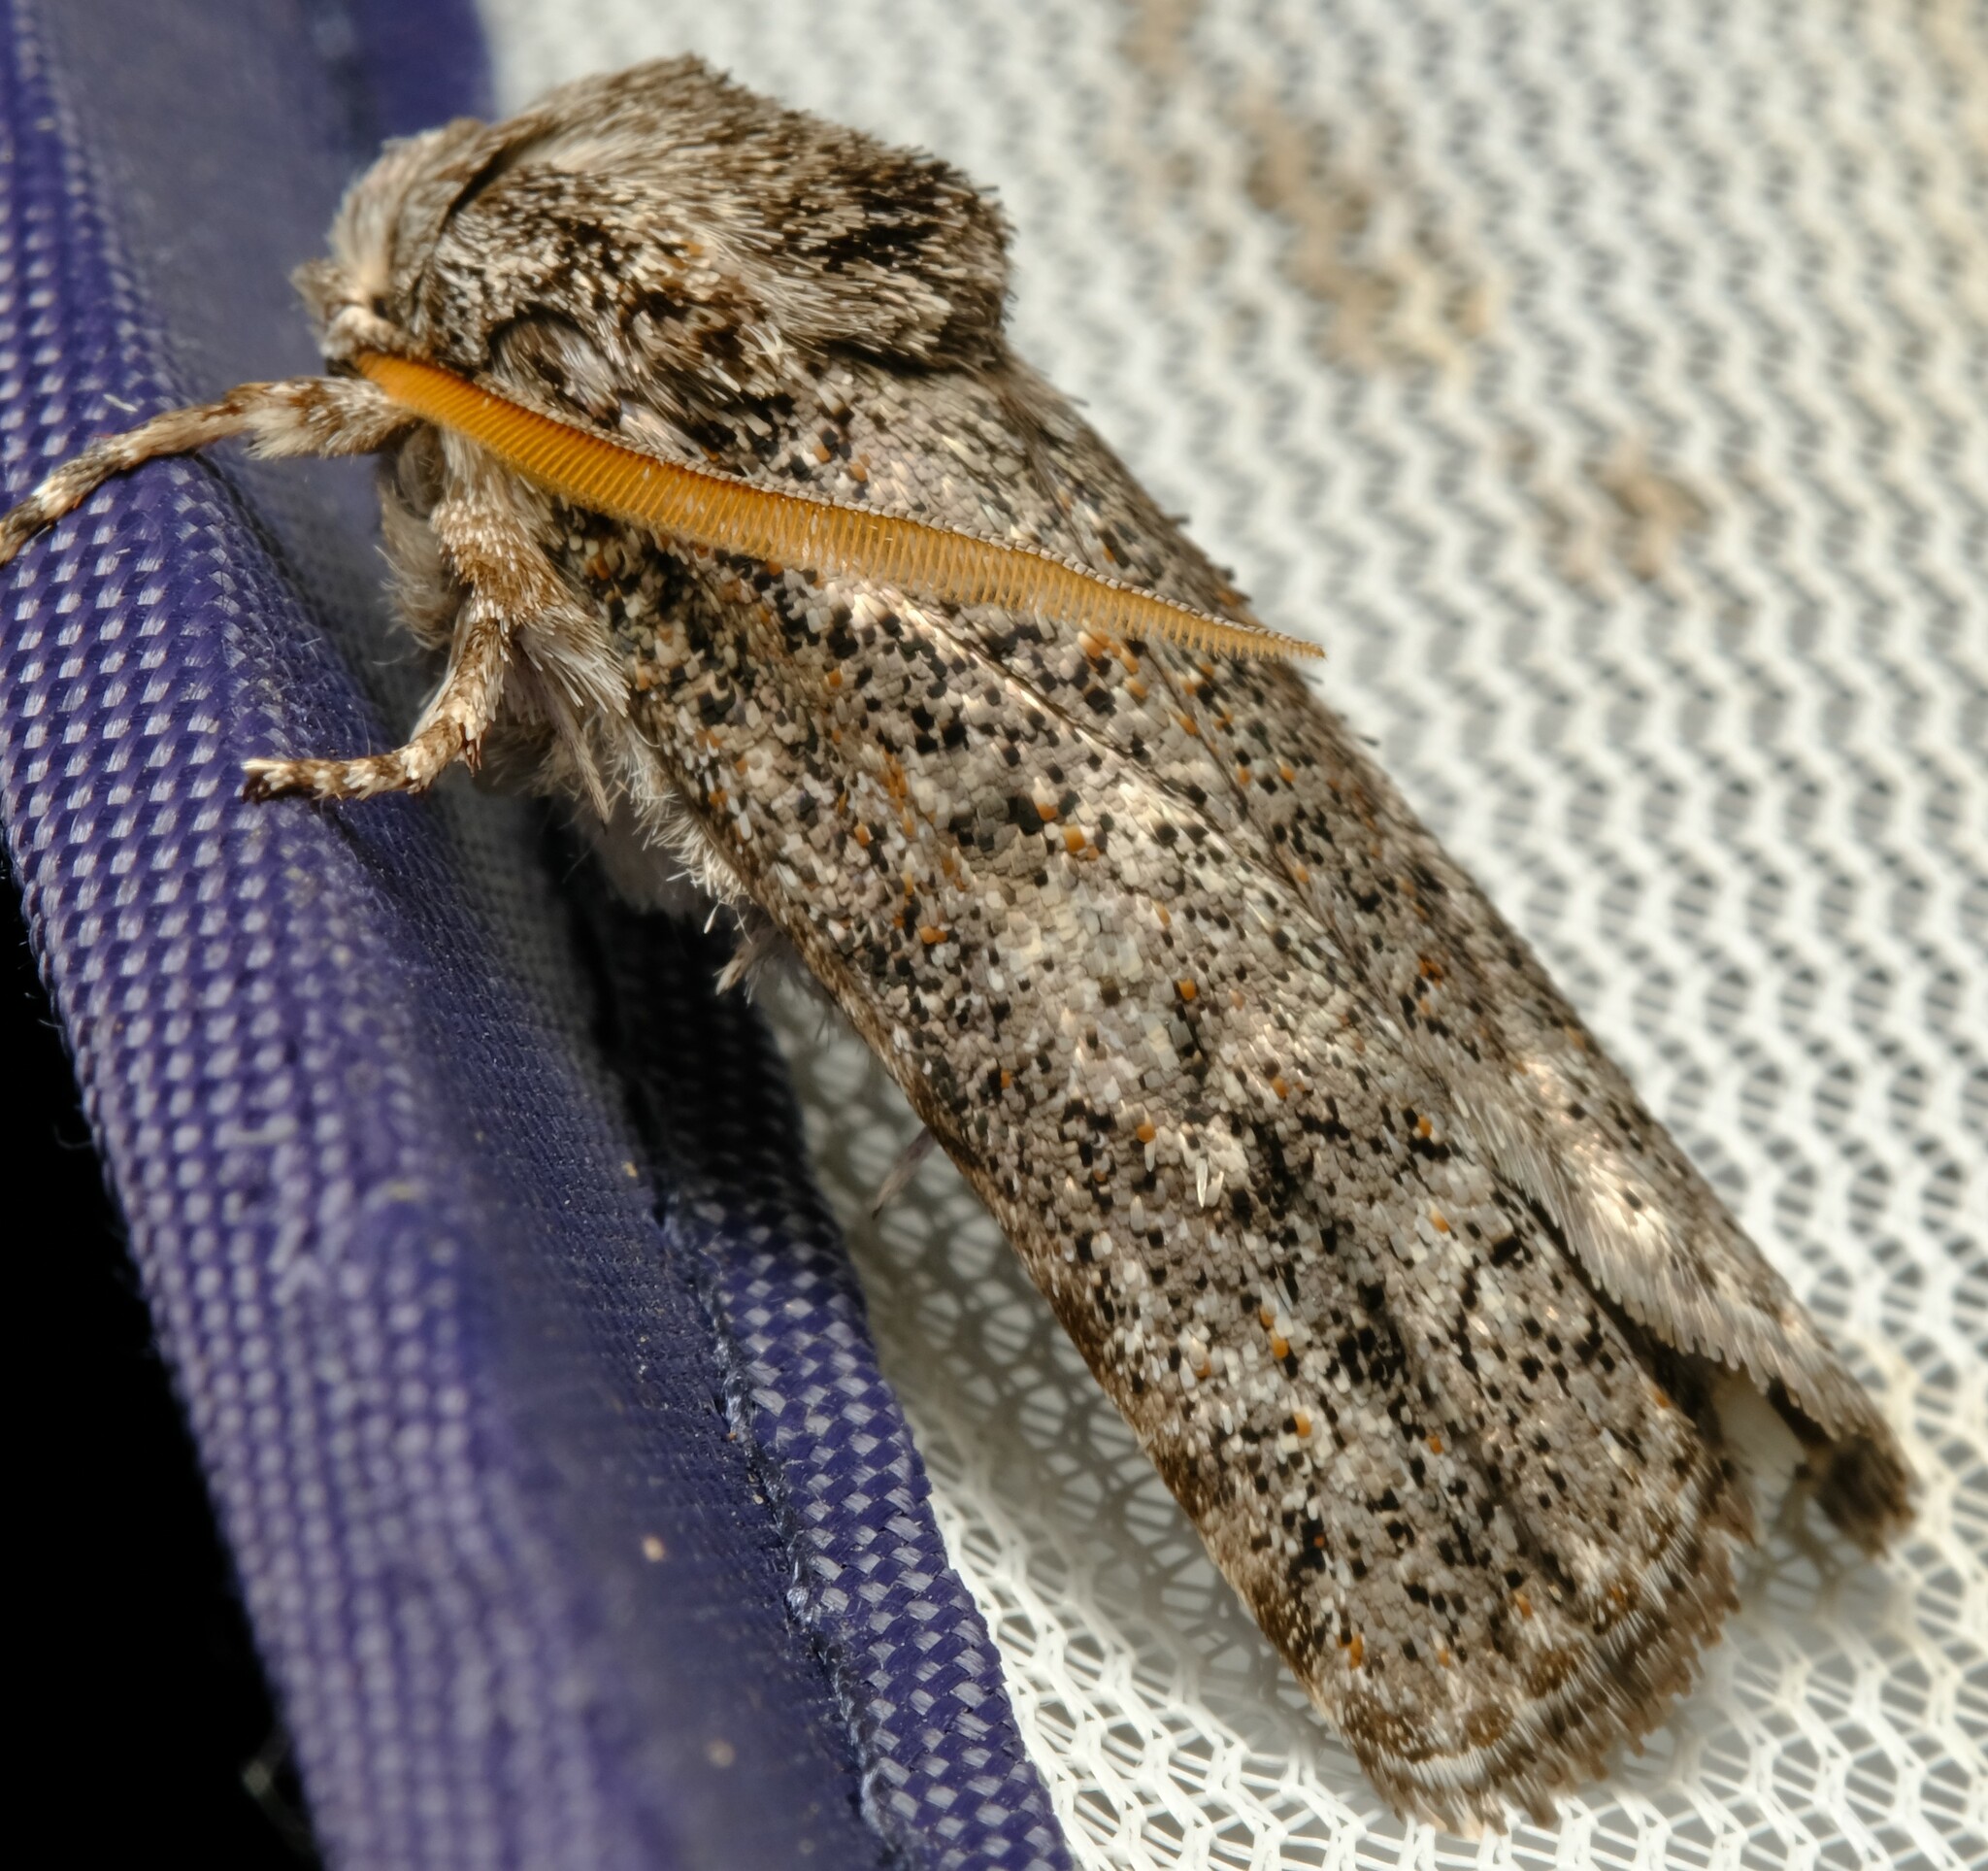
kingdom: Animalia
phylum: Arthropoda
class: Insecta
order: Lepidoptera
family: Xyloryctidae
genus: Cryptophasa
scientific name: Cryptophasa irrorata
